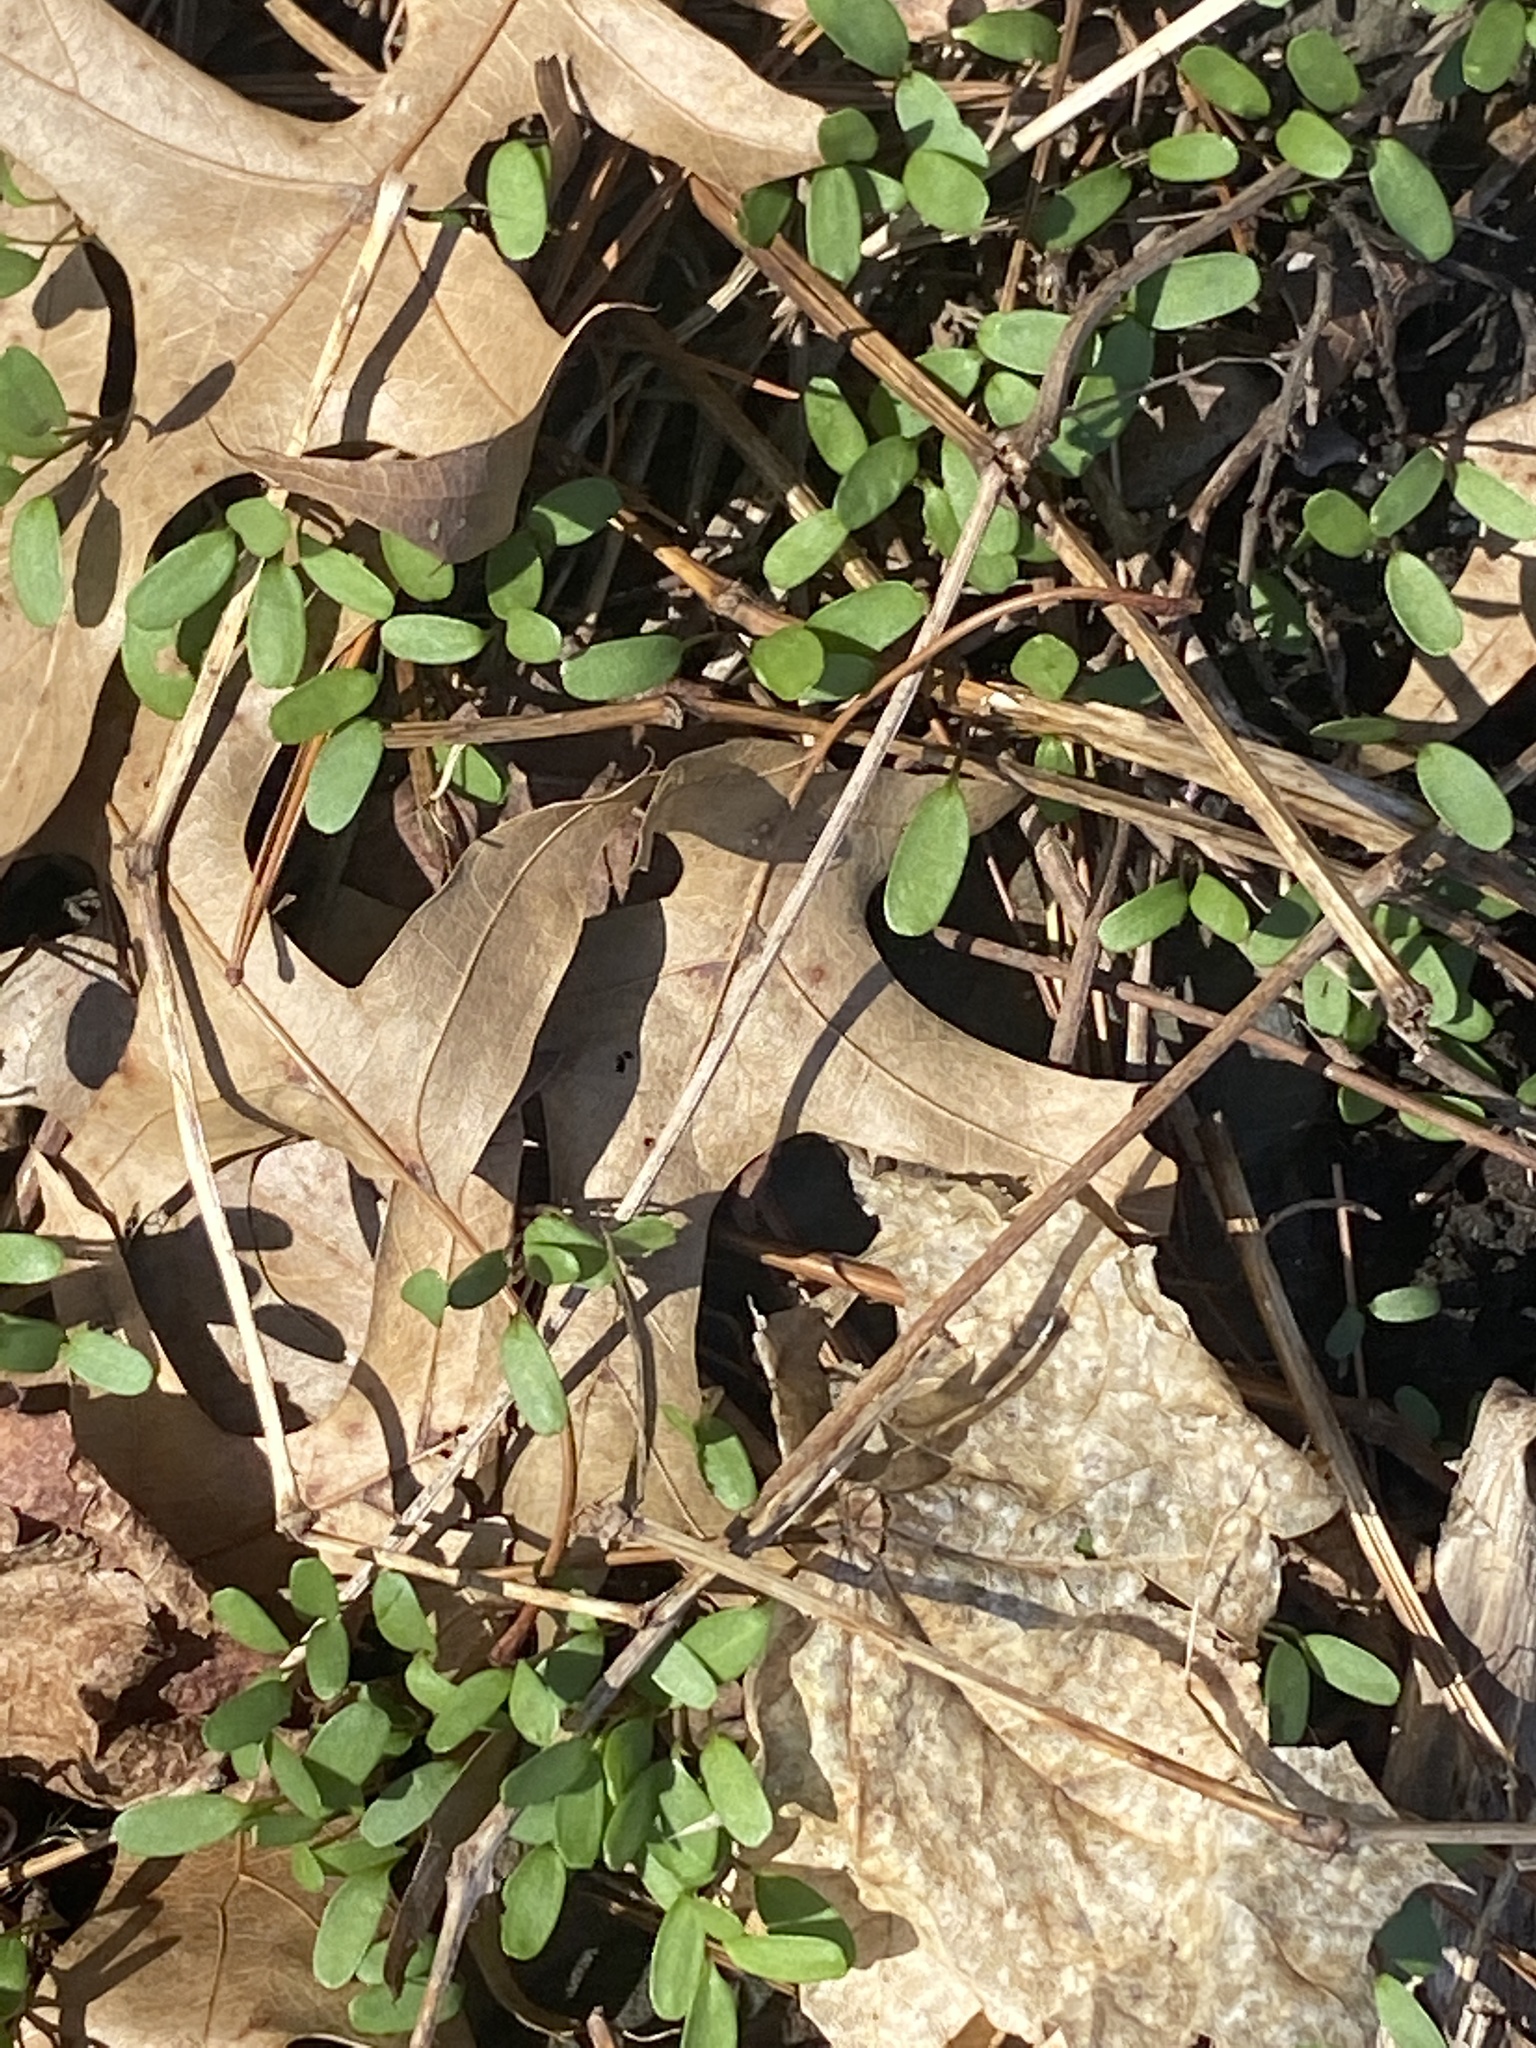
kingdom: Plantae
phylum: Tracheophyta
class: Magnoliopsida
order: Brassicales
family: Brassicaceae
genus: Alliaria
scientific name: Alliaria petiolata
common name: Garlic mustard
